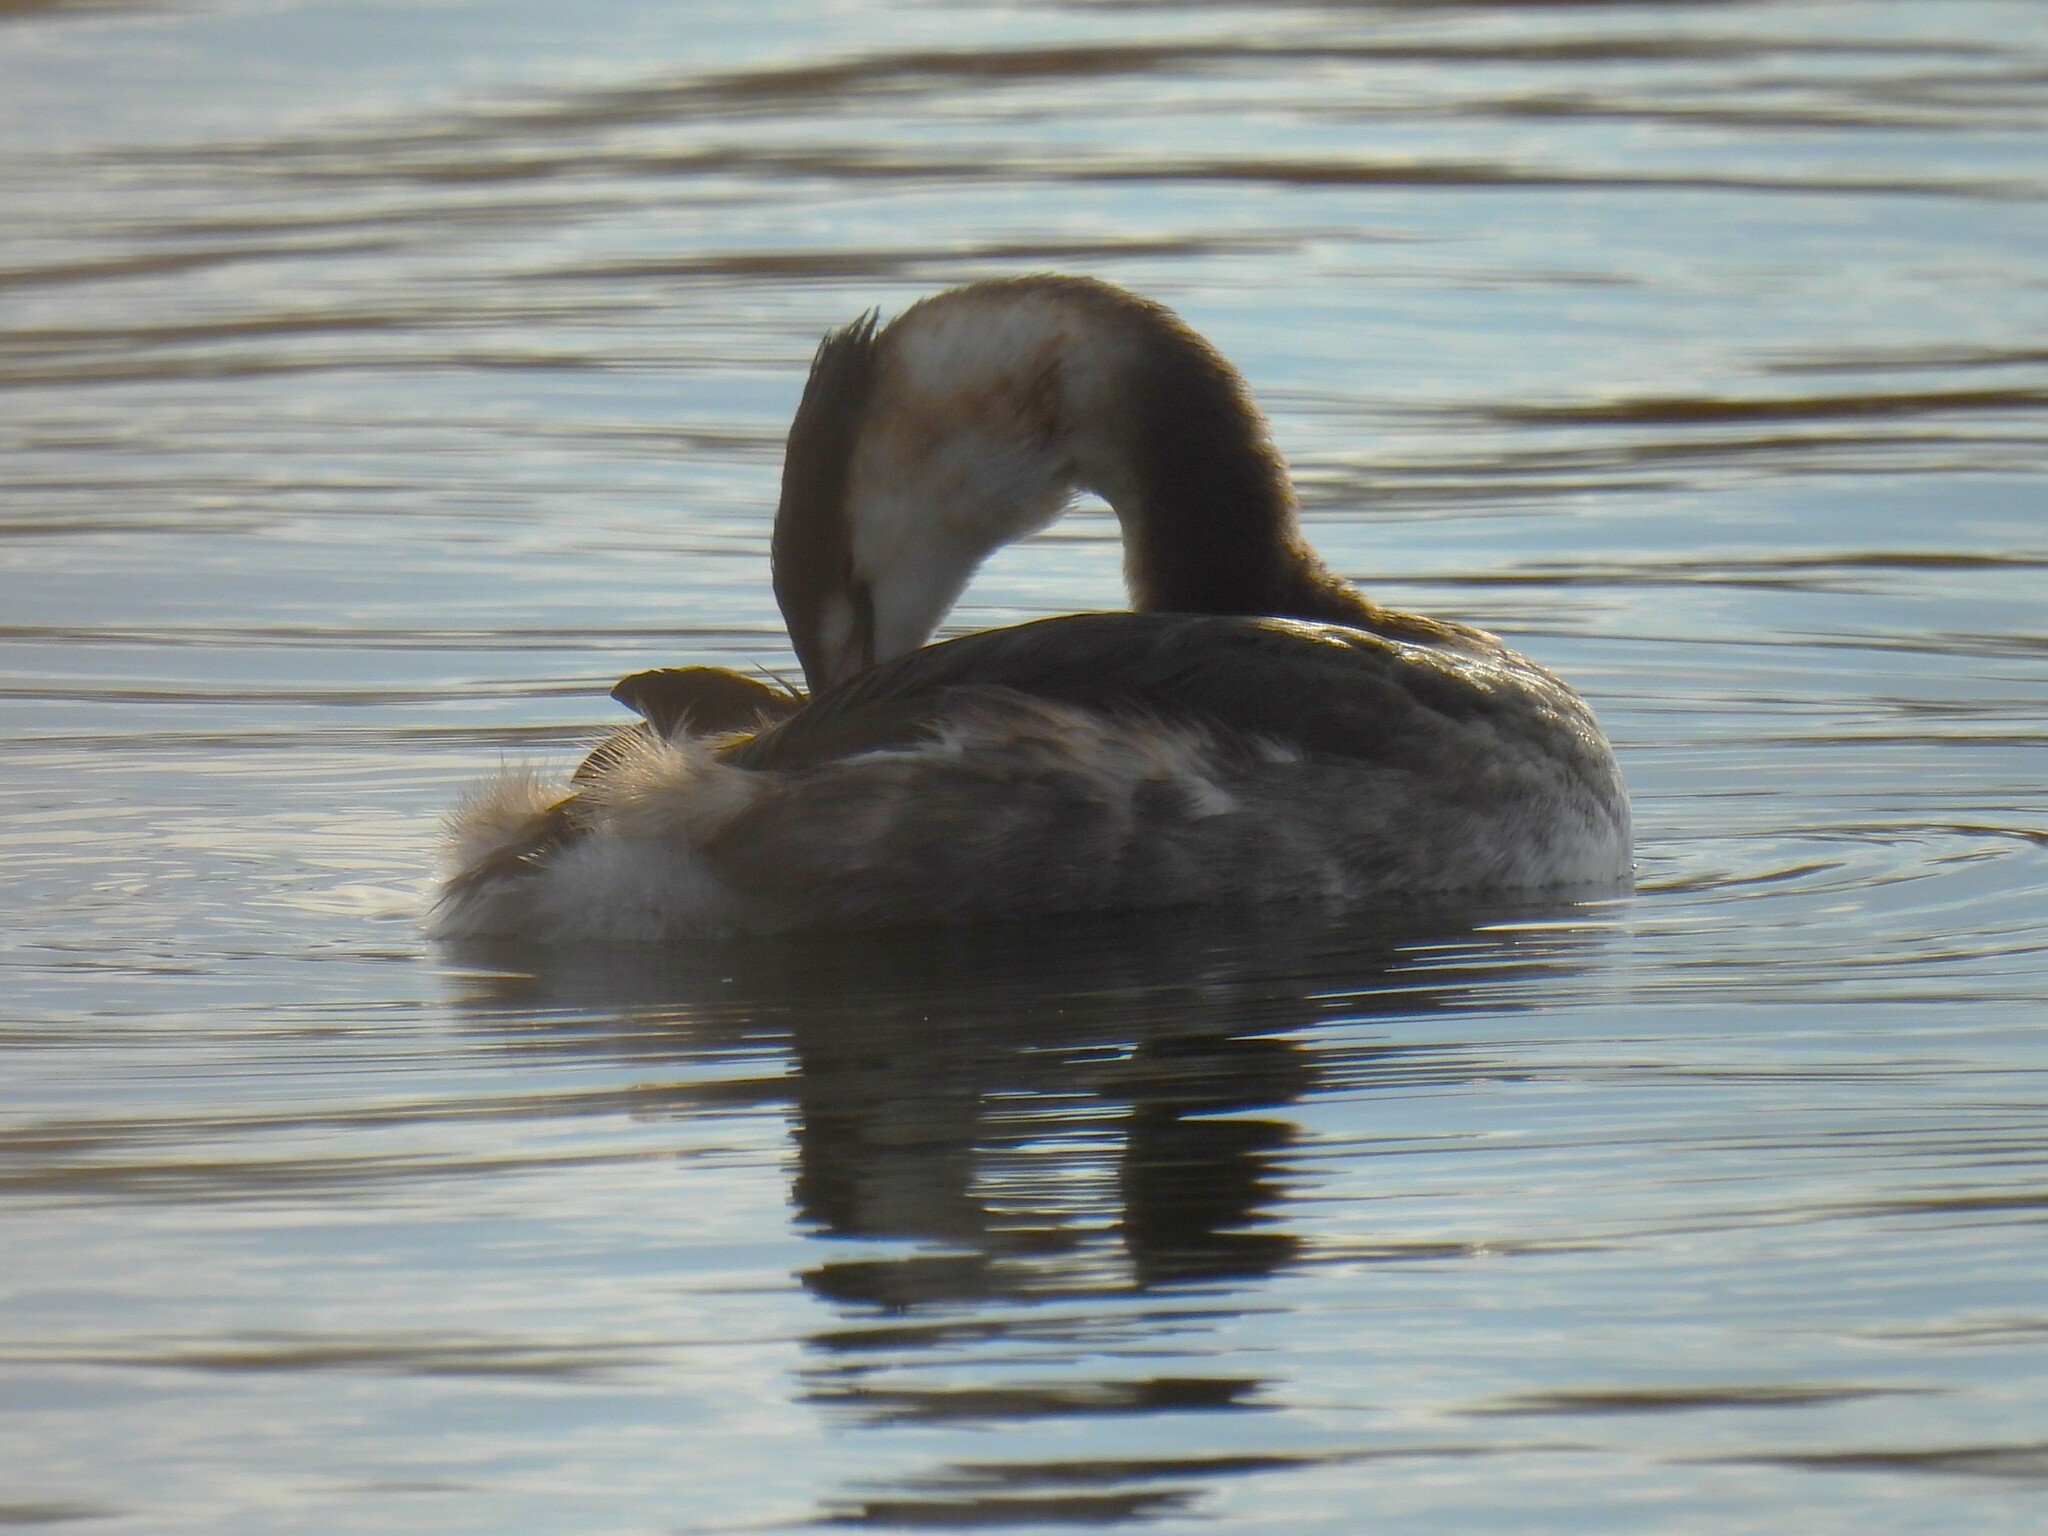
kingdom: Animalia
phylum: Chordata
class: Aves
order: Podicipediformes
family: Podicipedidae
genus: Podiceps
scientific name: Podiceps cristatus
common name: Great crested grebe
